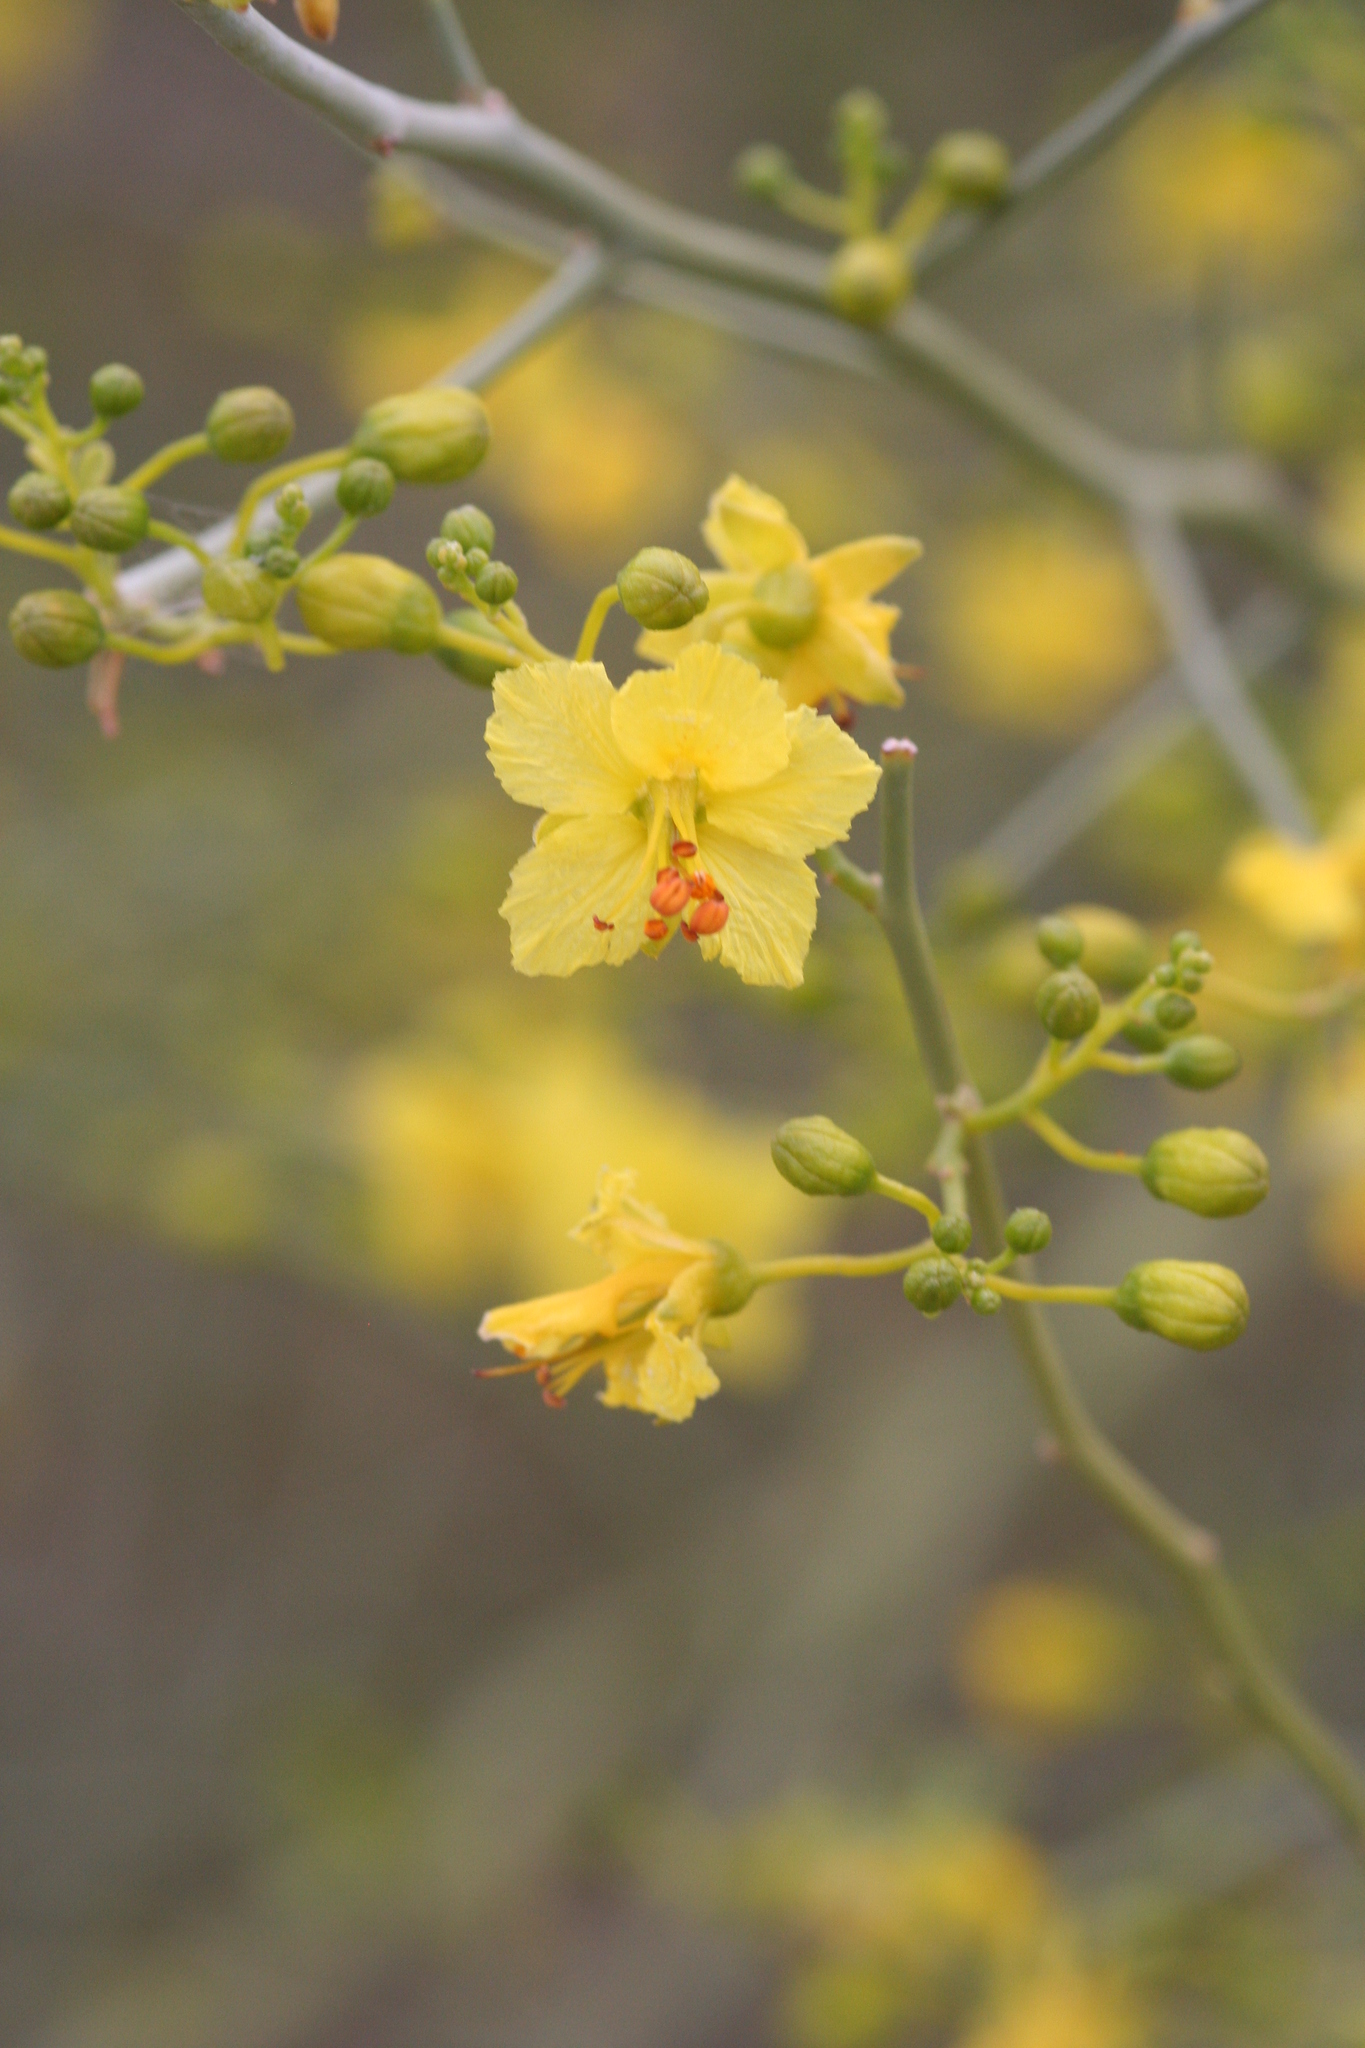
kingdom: Plantae
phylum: Tracheophyta
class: Magnoliopsida
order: Fabales
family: Fabaceae
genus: Parkinsonia
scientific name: Parkinsonia florida
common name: Blue paloverde
